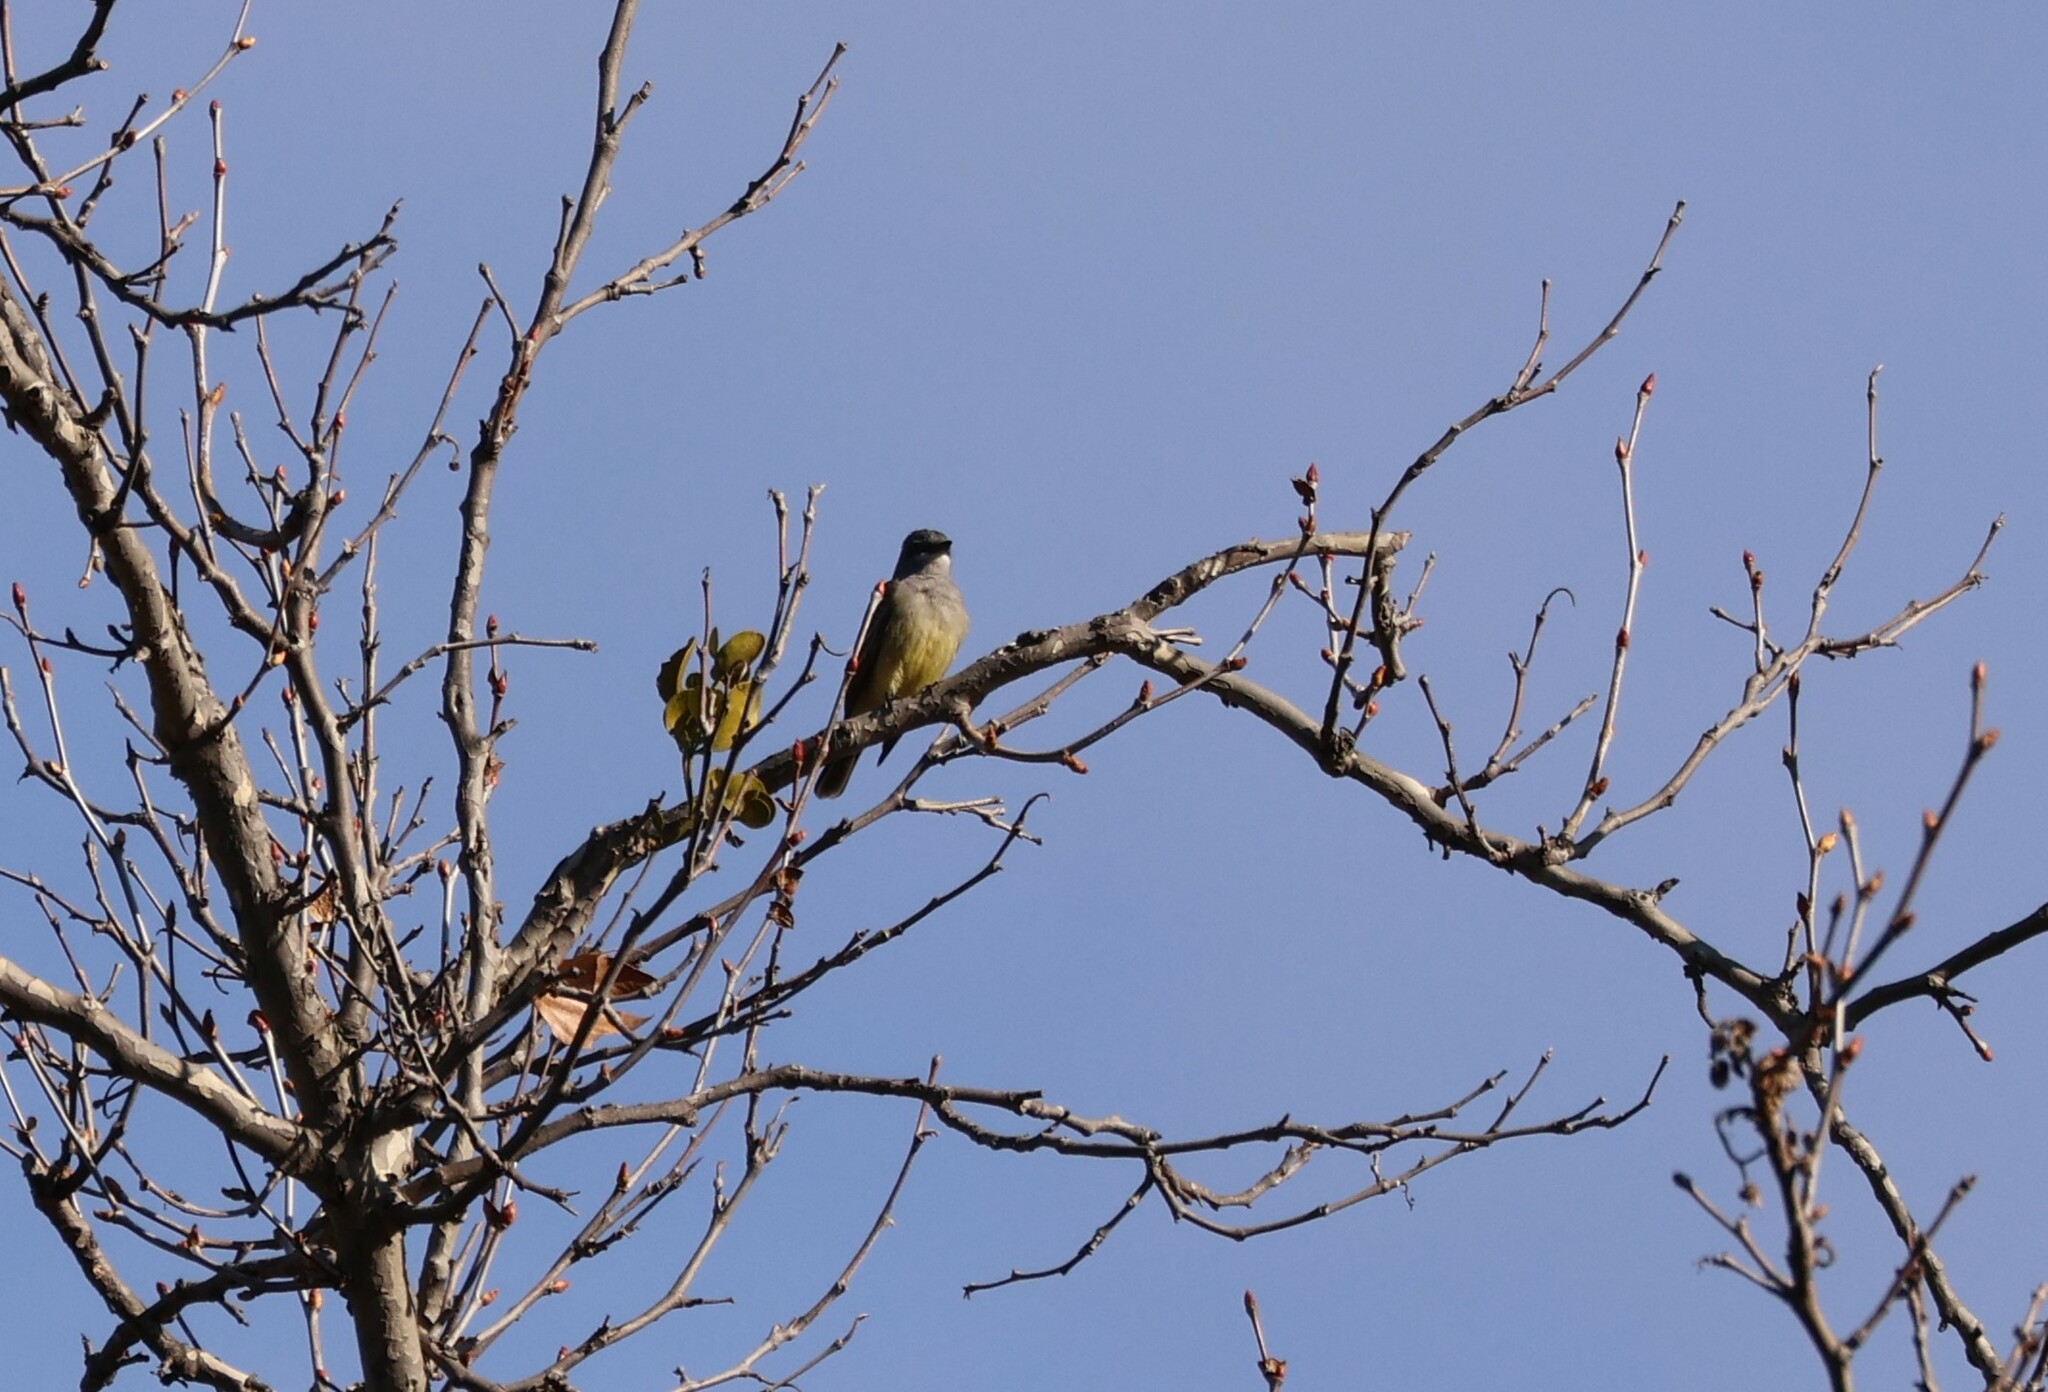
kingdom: Animalia
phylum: Chordata
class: Aves
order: Passeriformes
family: Tyrannidae
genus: Tyrannus
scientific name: Tyrannus vociferans
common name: Cassin's kingbird
